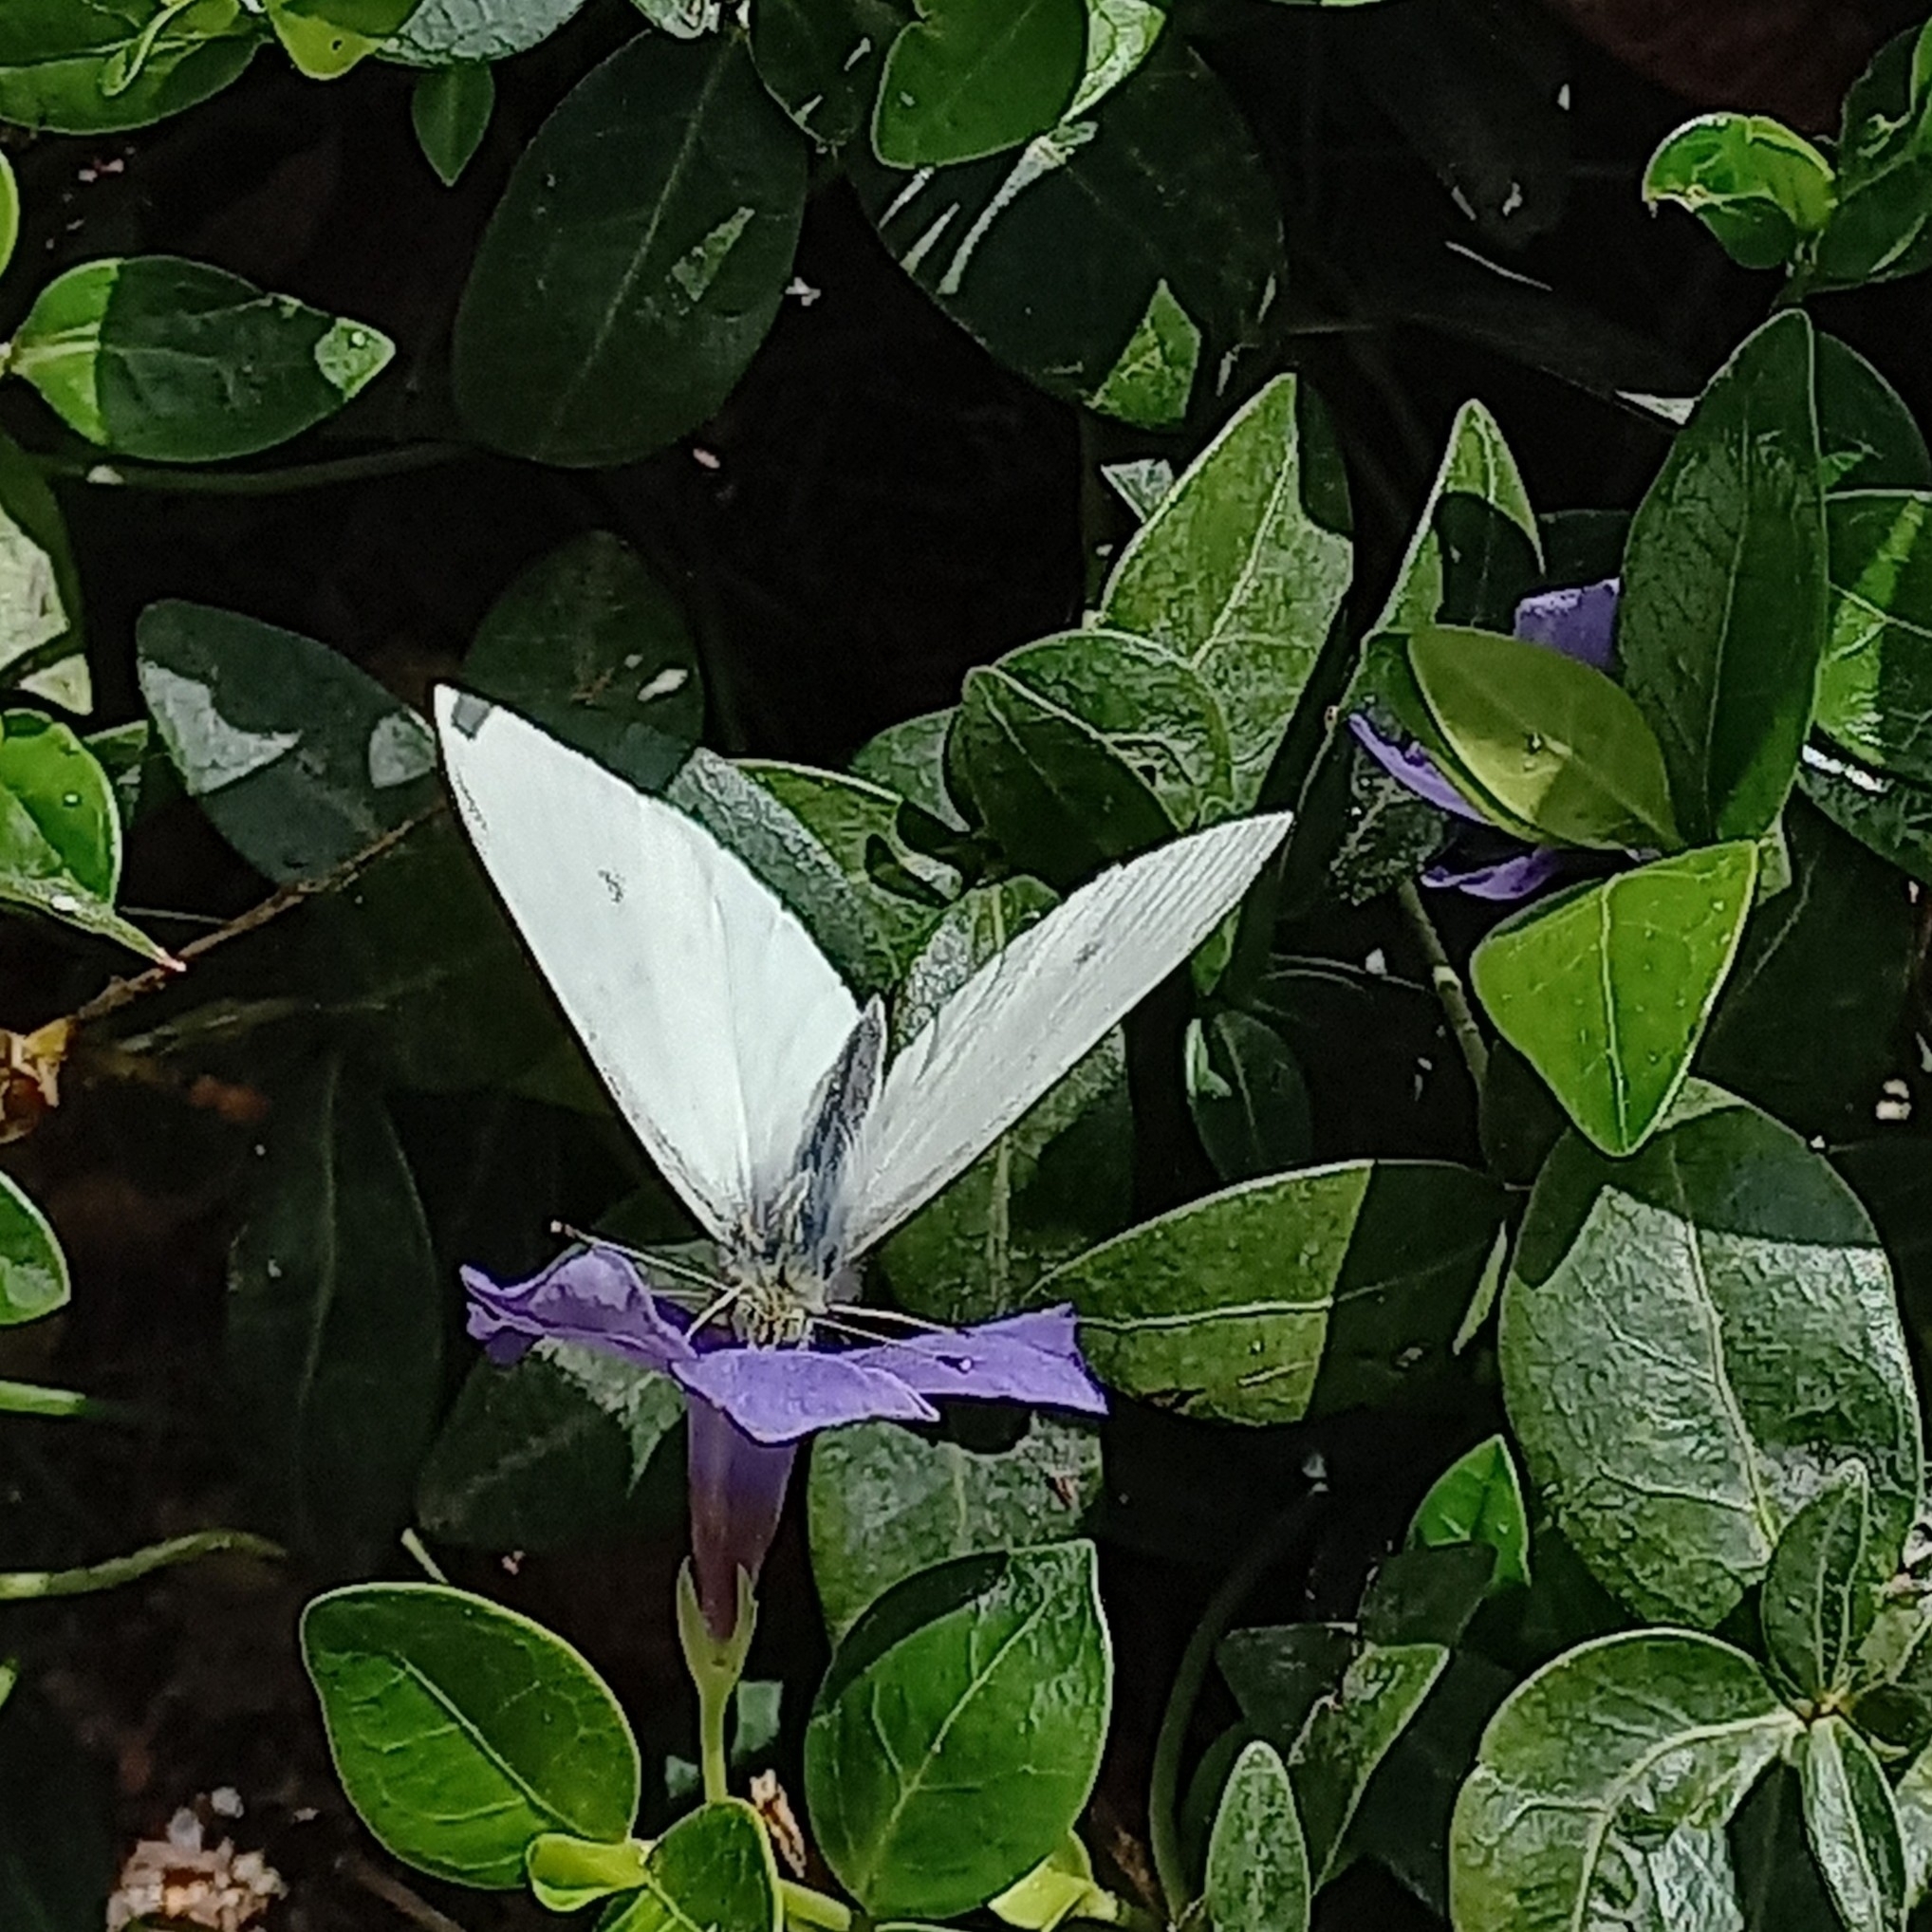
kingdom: Animalia
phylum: Arthropoda
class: Insecta
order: Lepidoptera
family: Pieridae
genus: Pieris
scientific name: Pieris rapae
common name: Small white
